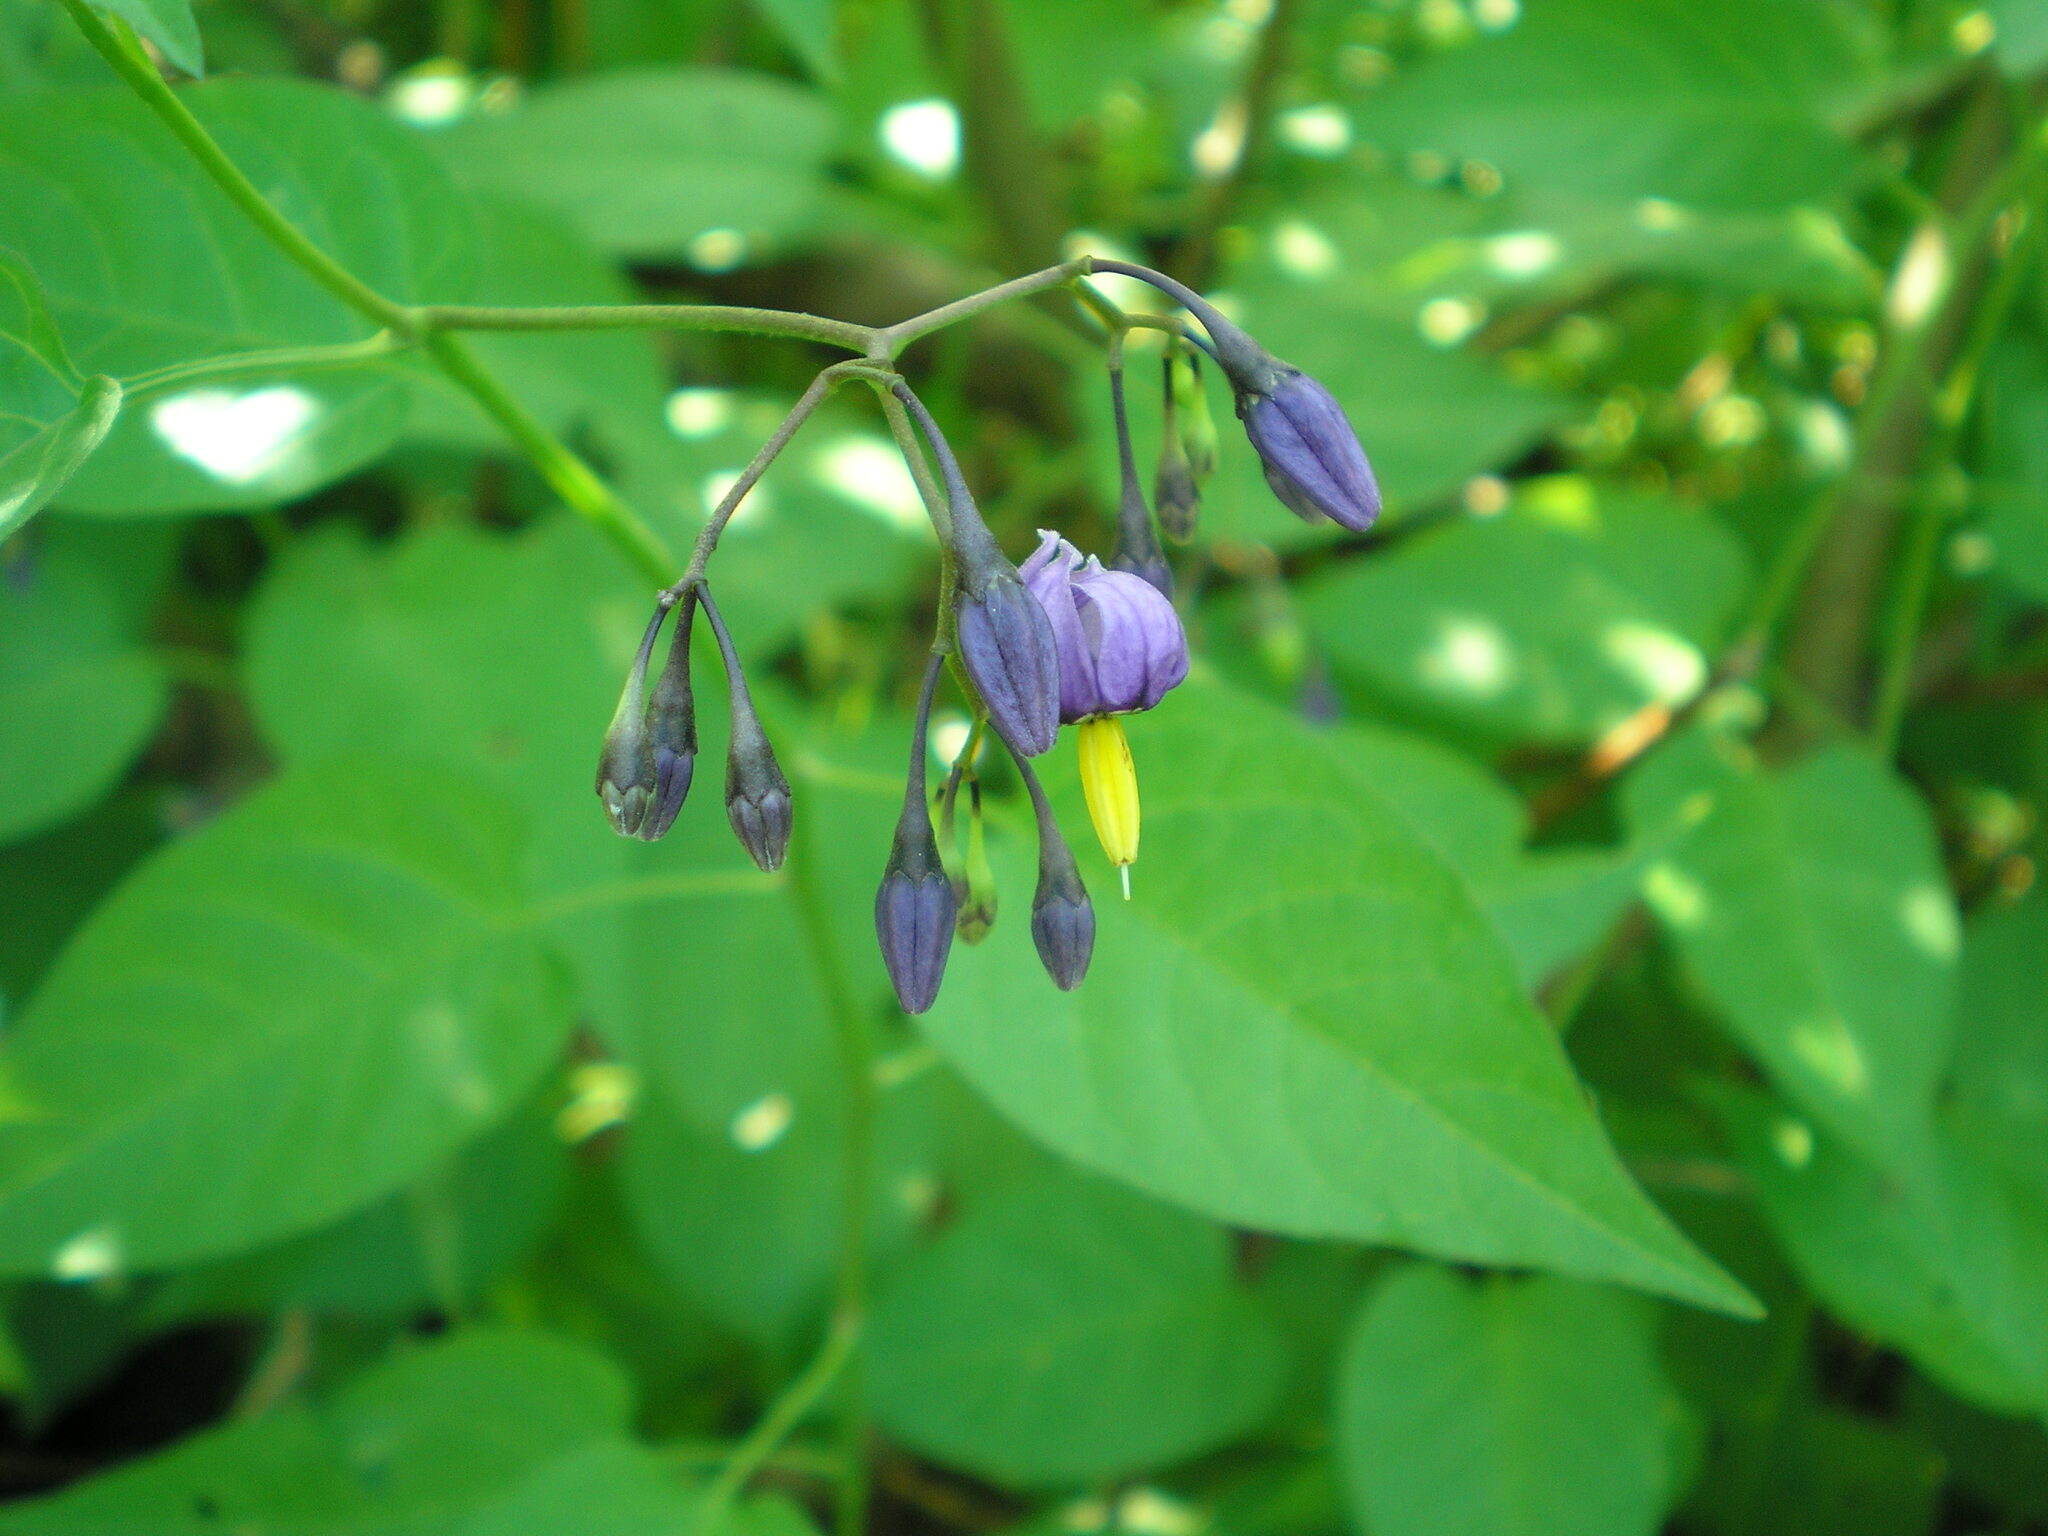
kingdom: Plantae
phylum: Tracheophyta
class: Magnoliopsida
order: Solanales
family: Solanaceae
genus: Solanum
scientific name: Solanum dulcamara
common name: Climbing nightshade
